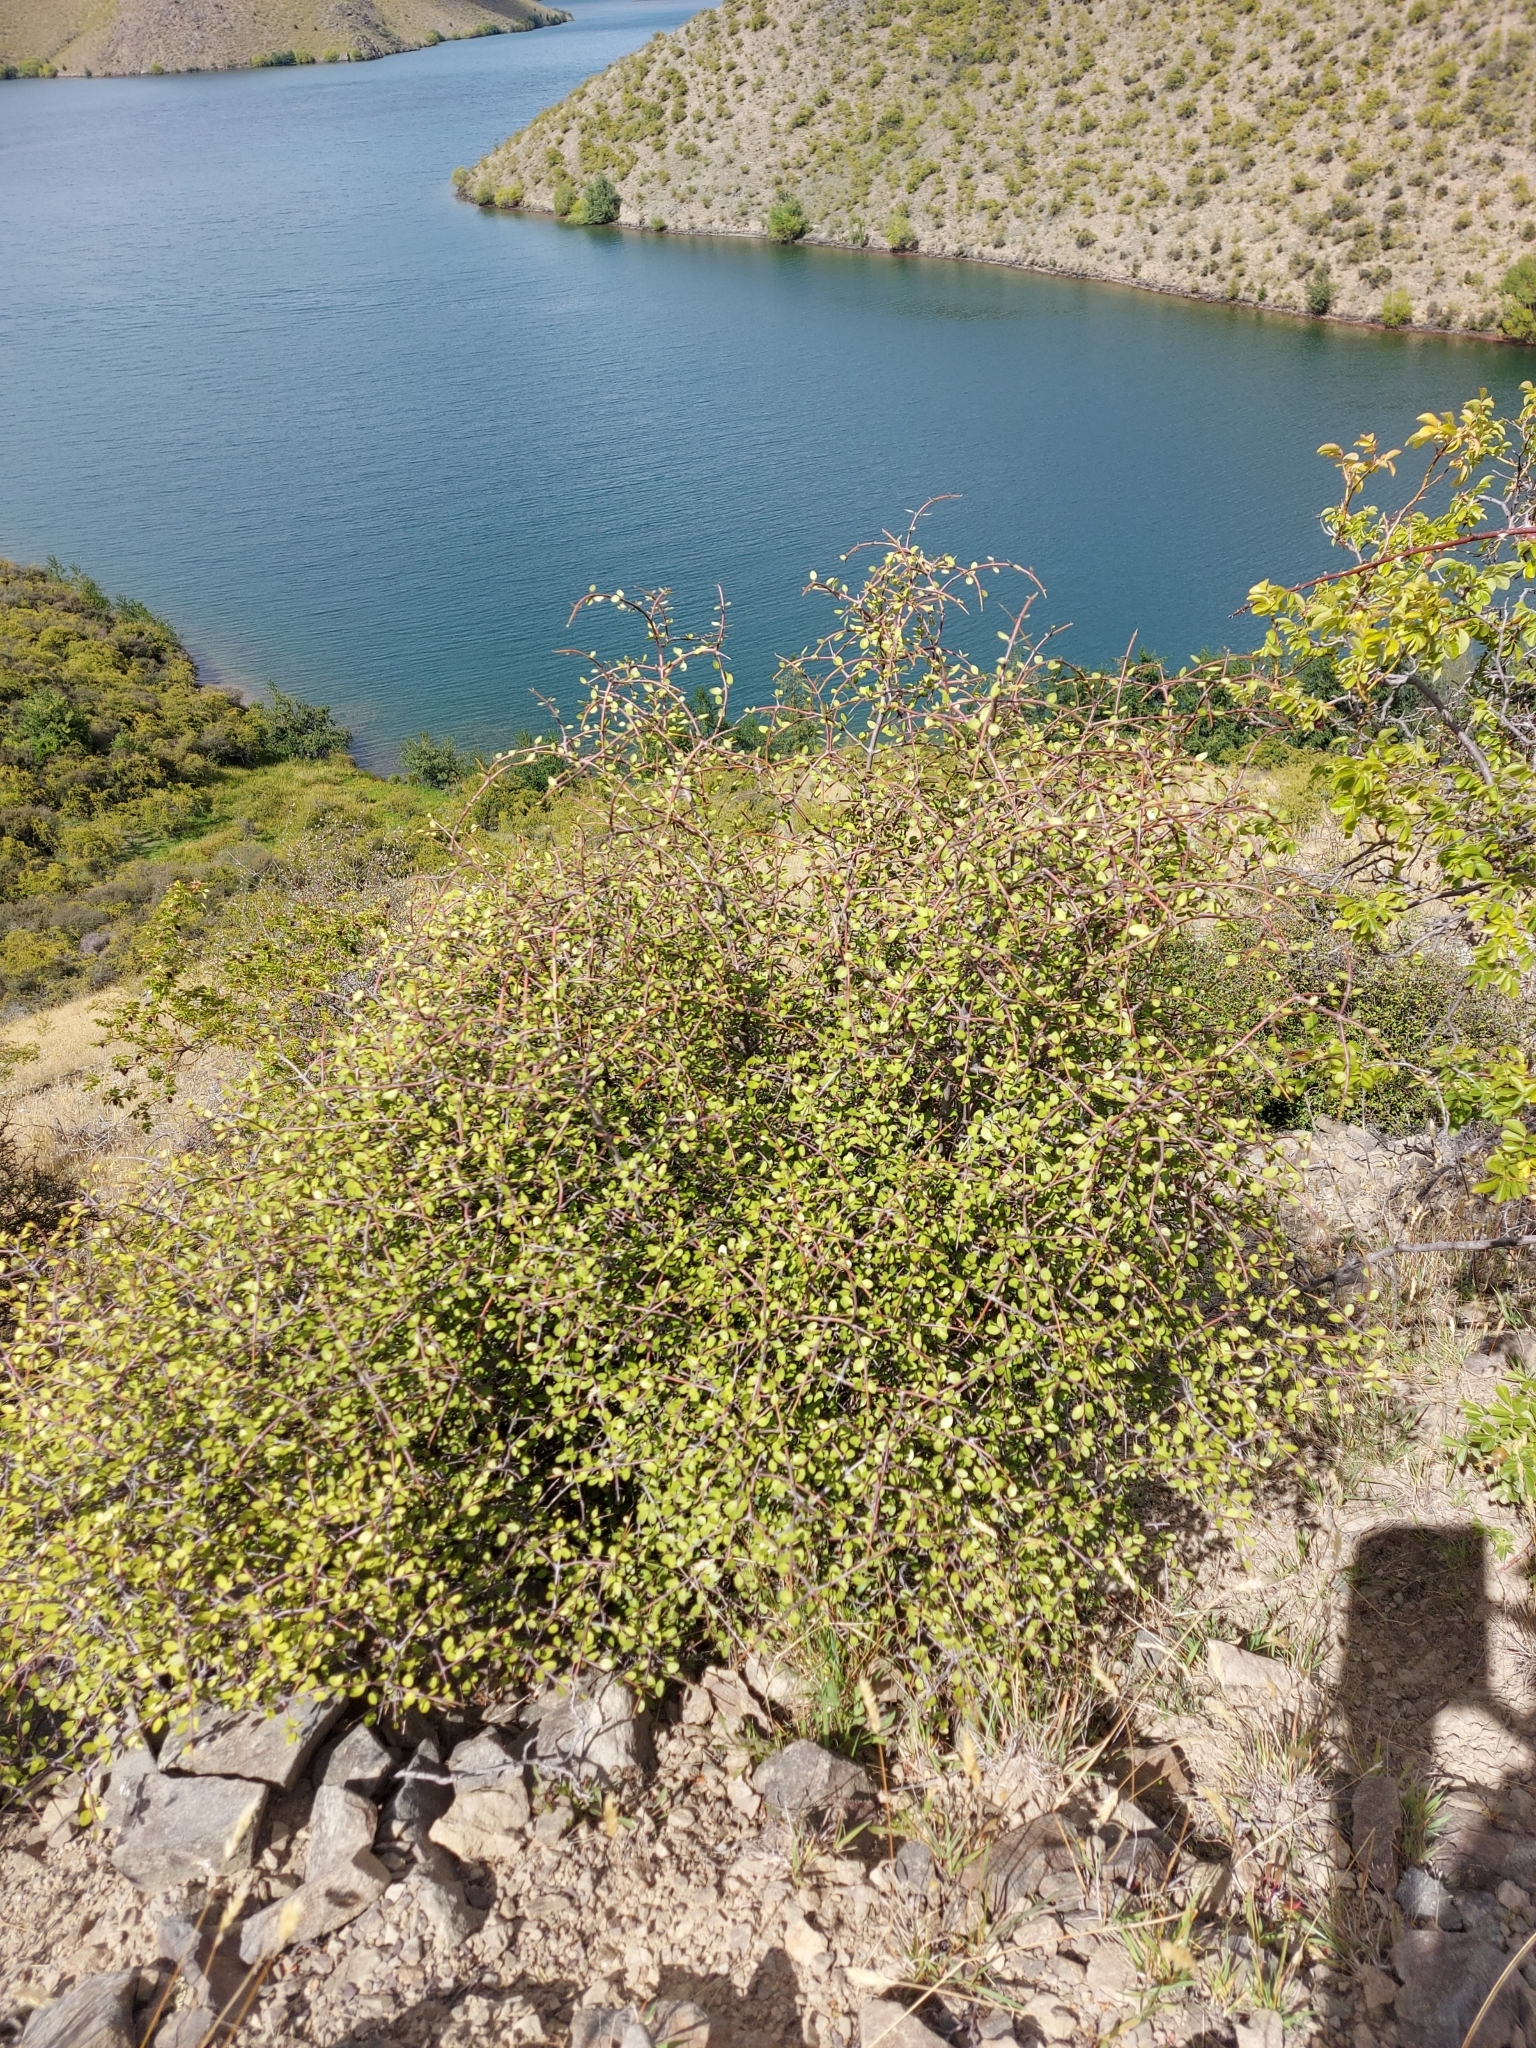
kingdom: Plantae
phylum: Tracheophyta
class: Magnoliopsida
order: Oxalidales
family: Elaeocarpaceae
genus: Aristotelia
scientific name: Aristotelia fruticosa
